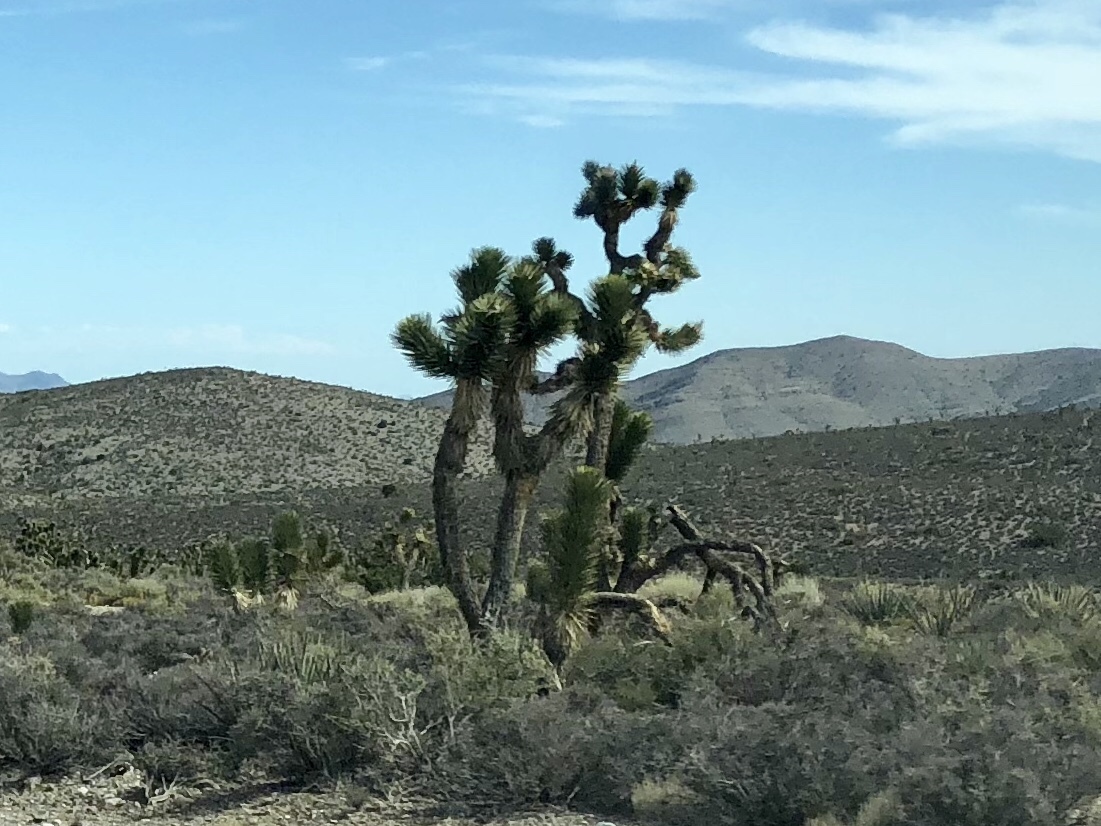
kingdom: Plantae
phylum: Tracheophyta
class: Liliopsida
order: Asparagales
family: Asparagaceae
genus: Yucca
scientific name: Yucca brevifolia
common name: Joshua tree
